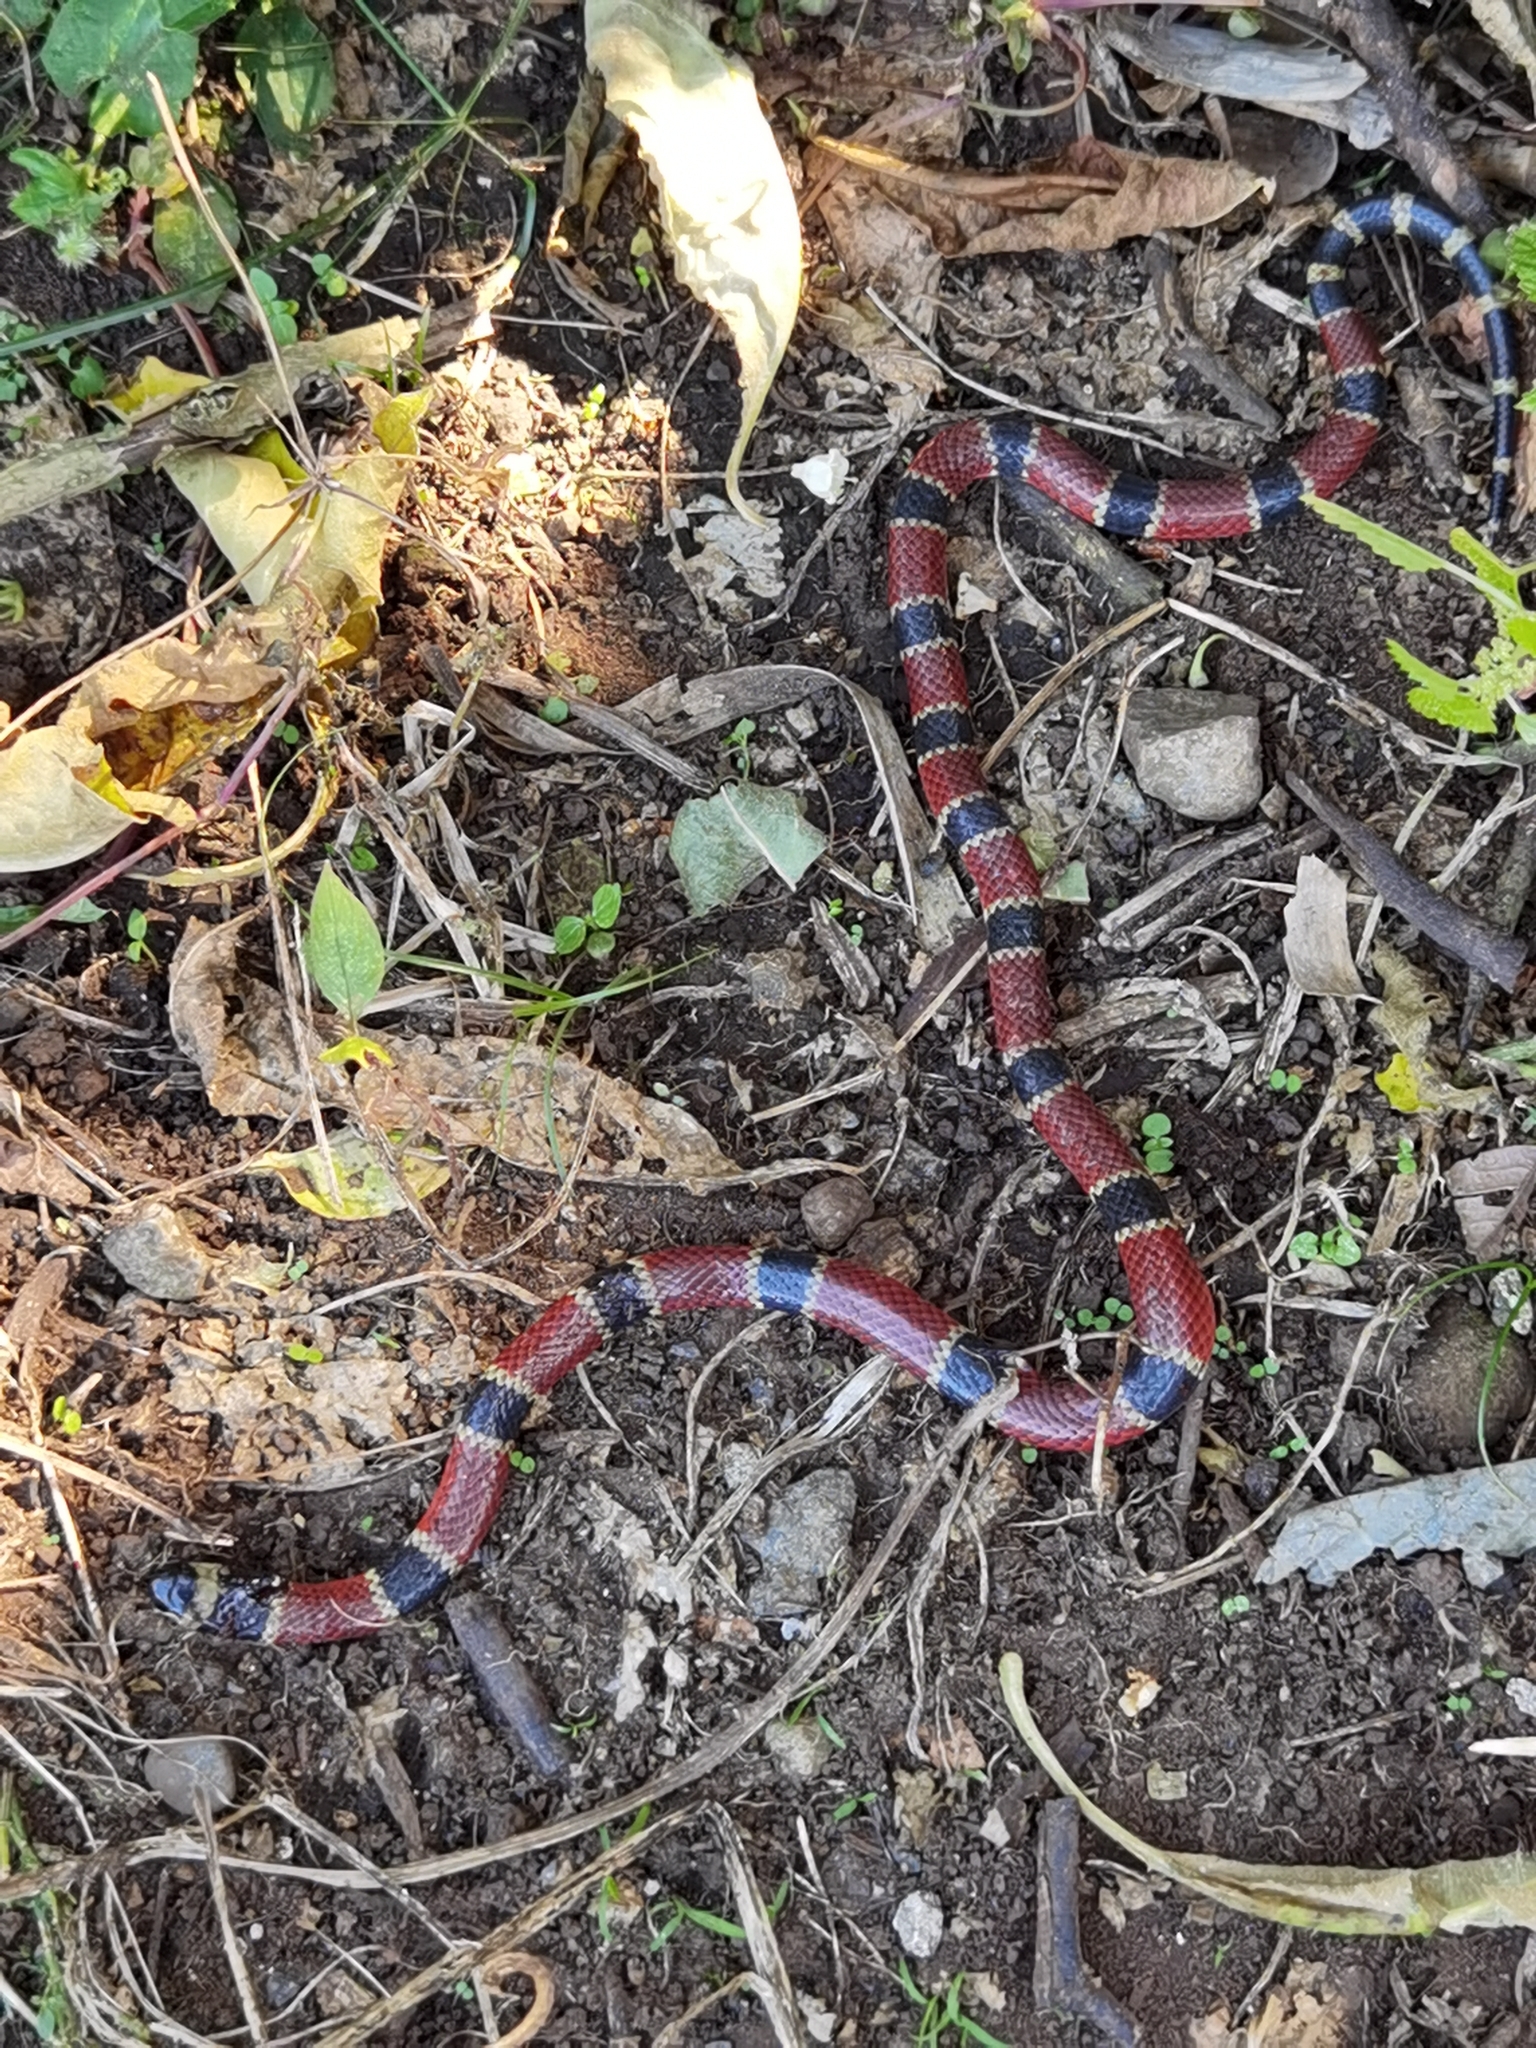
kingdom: Animalia
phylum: Chordata
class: Squamata
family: Elapidae
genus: Micrurus
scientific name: Micrurus nigrocinctus
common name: Babaspul [babaspul]
